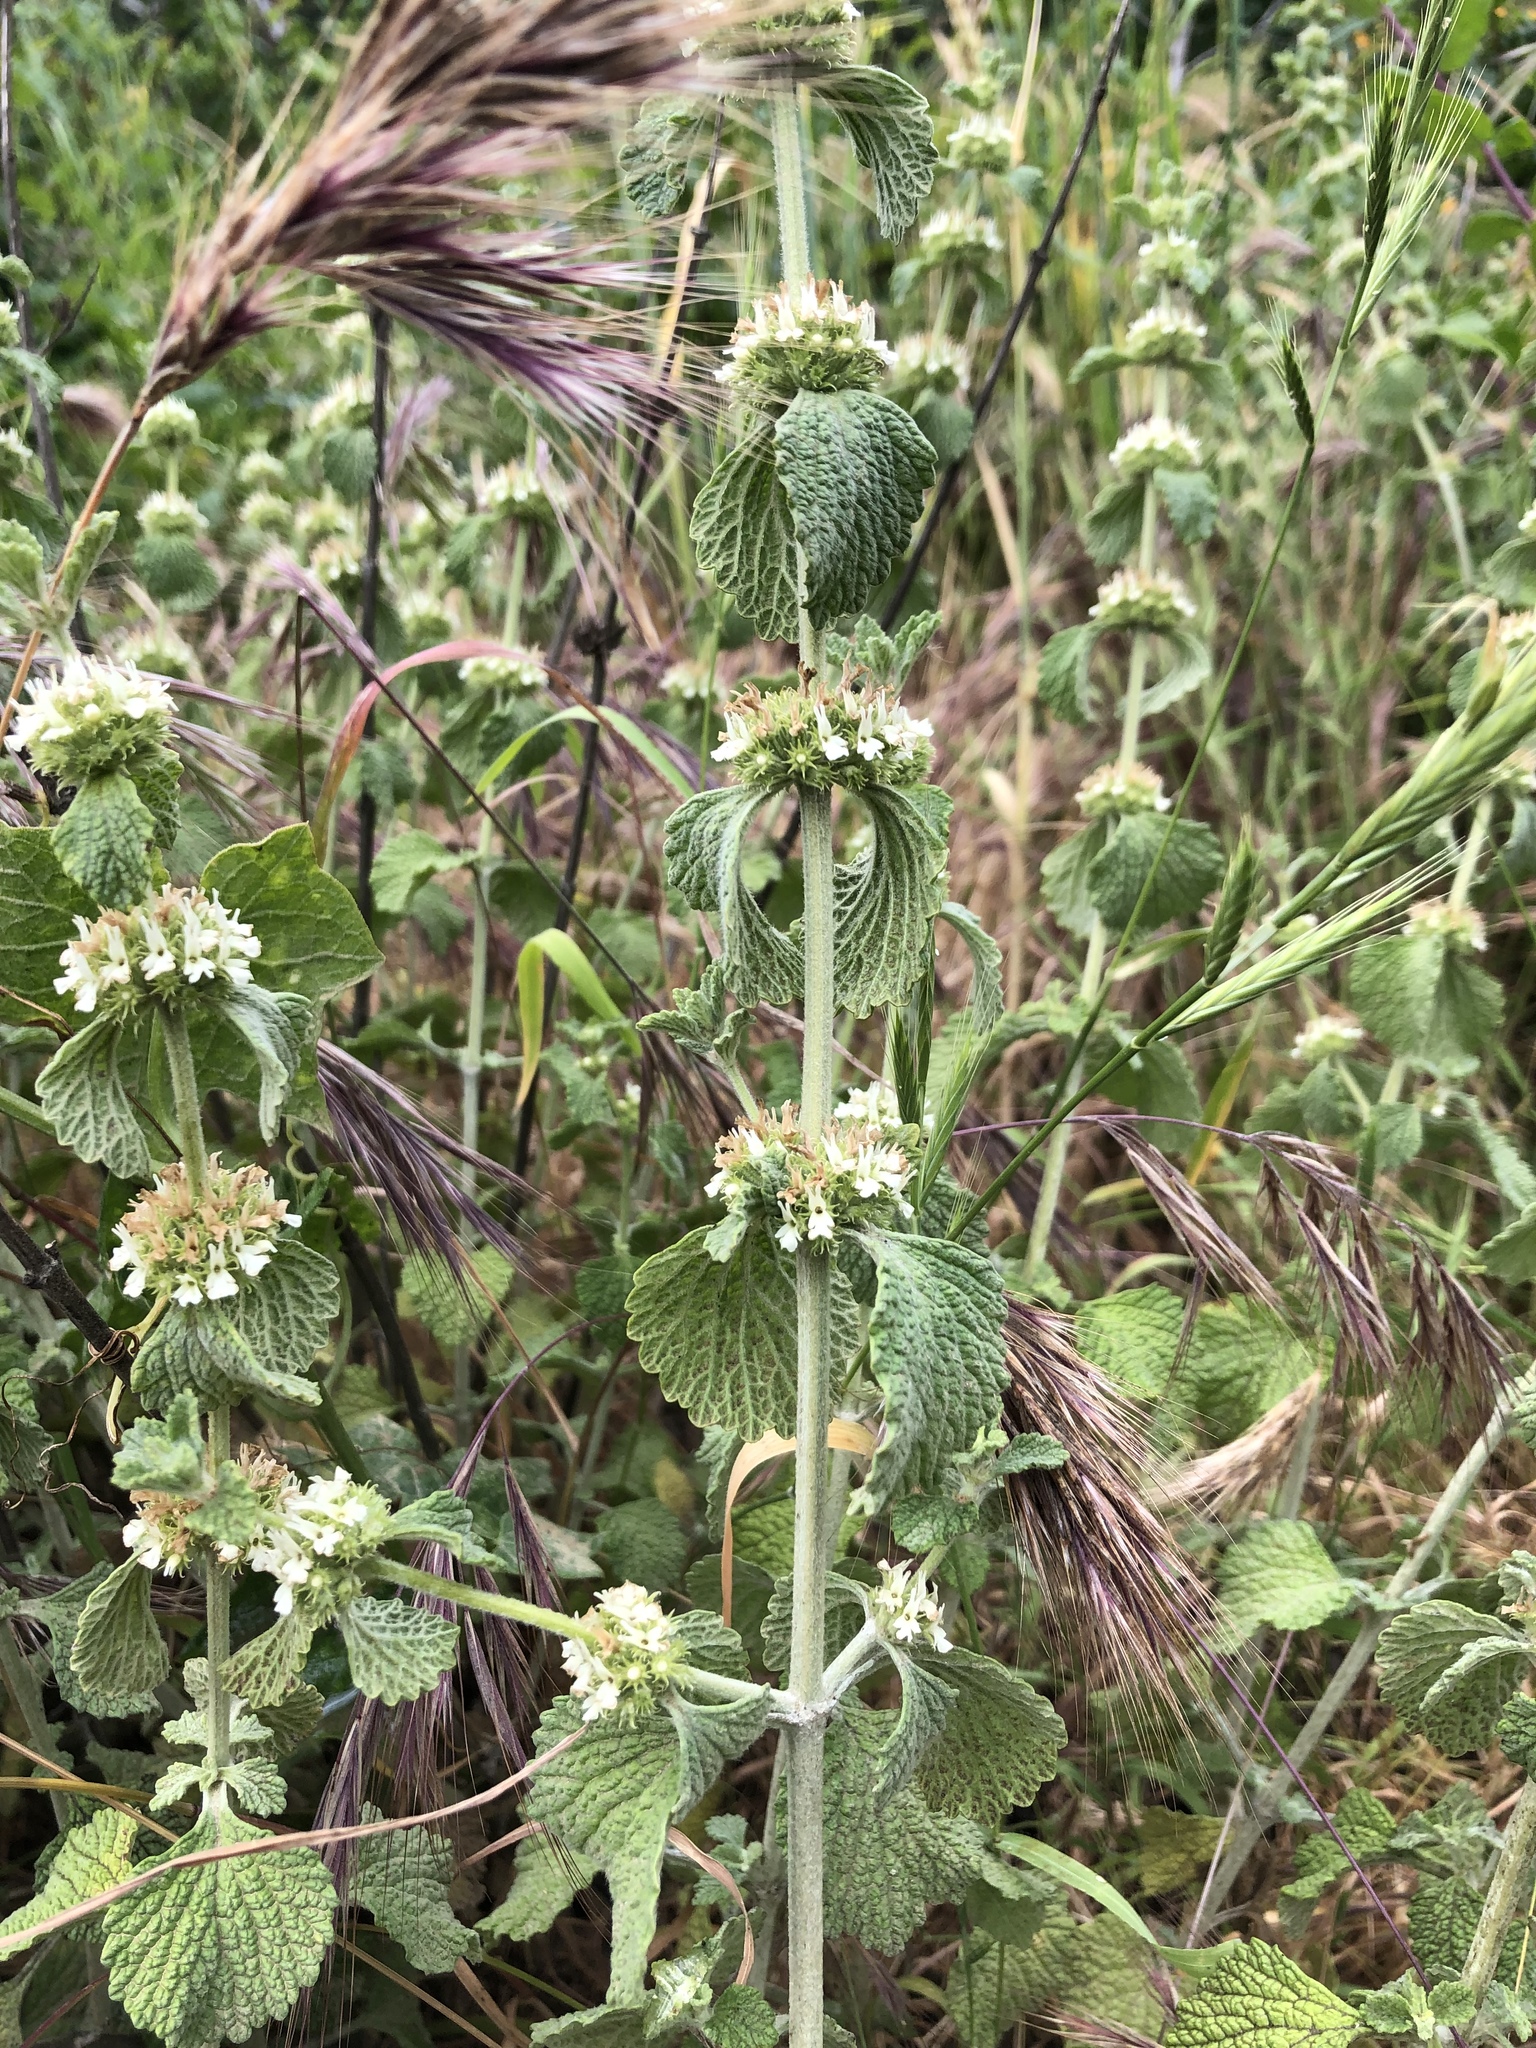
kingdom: Plantae
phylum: Tracheophyta
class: Magnoliopsida
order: Lamiales
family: Lamiaceae
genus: Marrubium
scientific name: Marrubium vulgare
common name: Horehound
